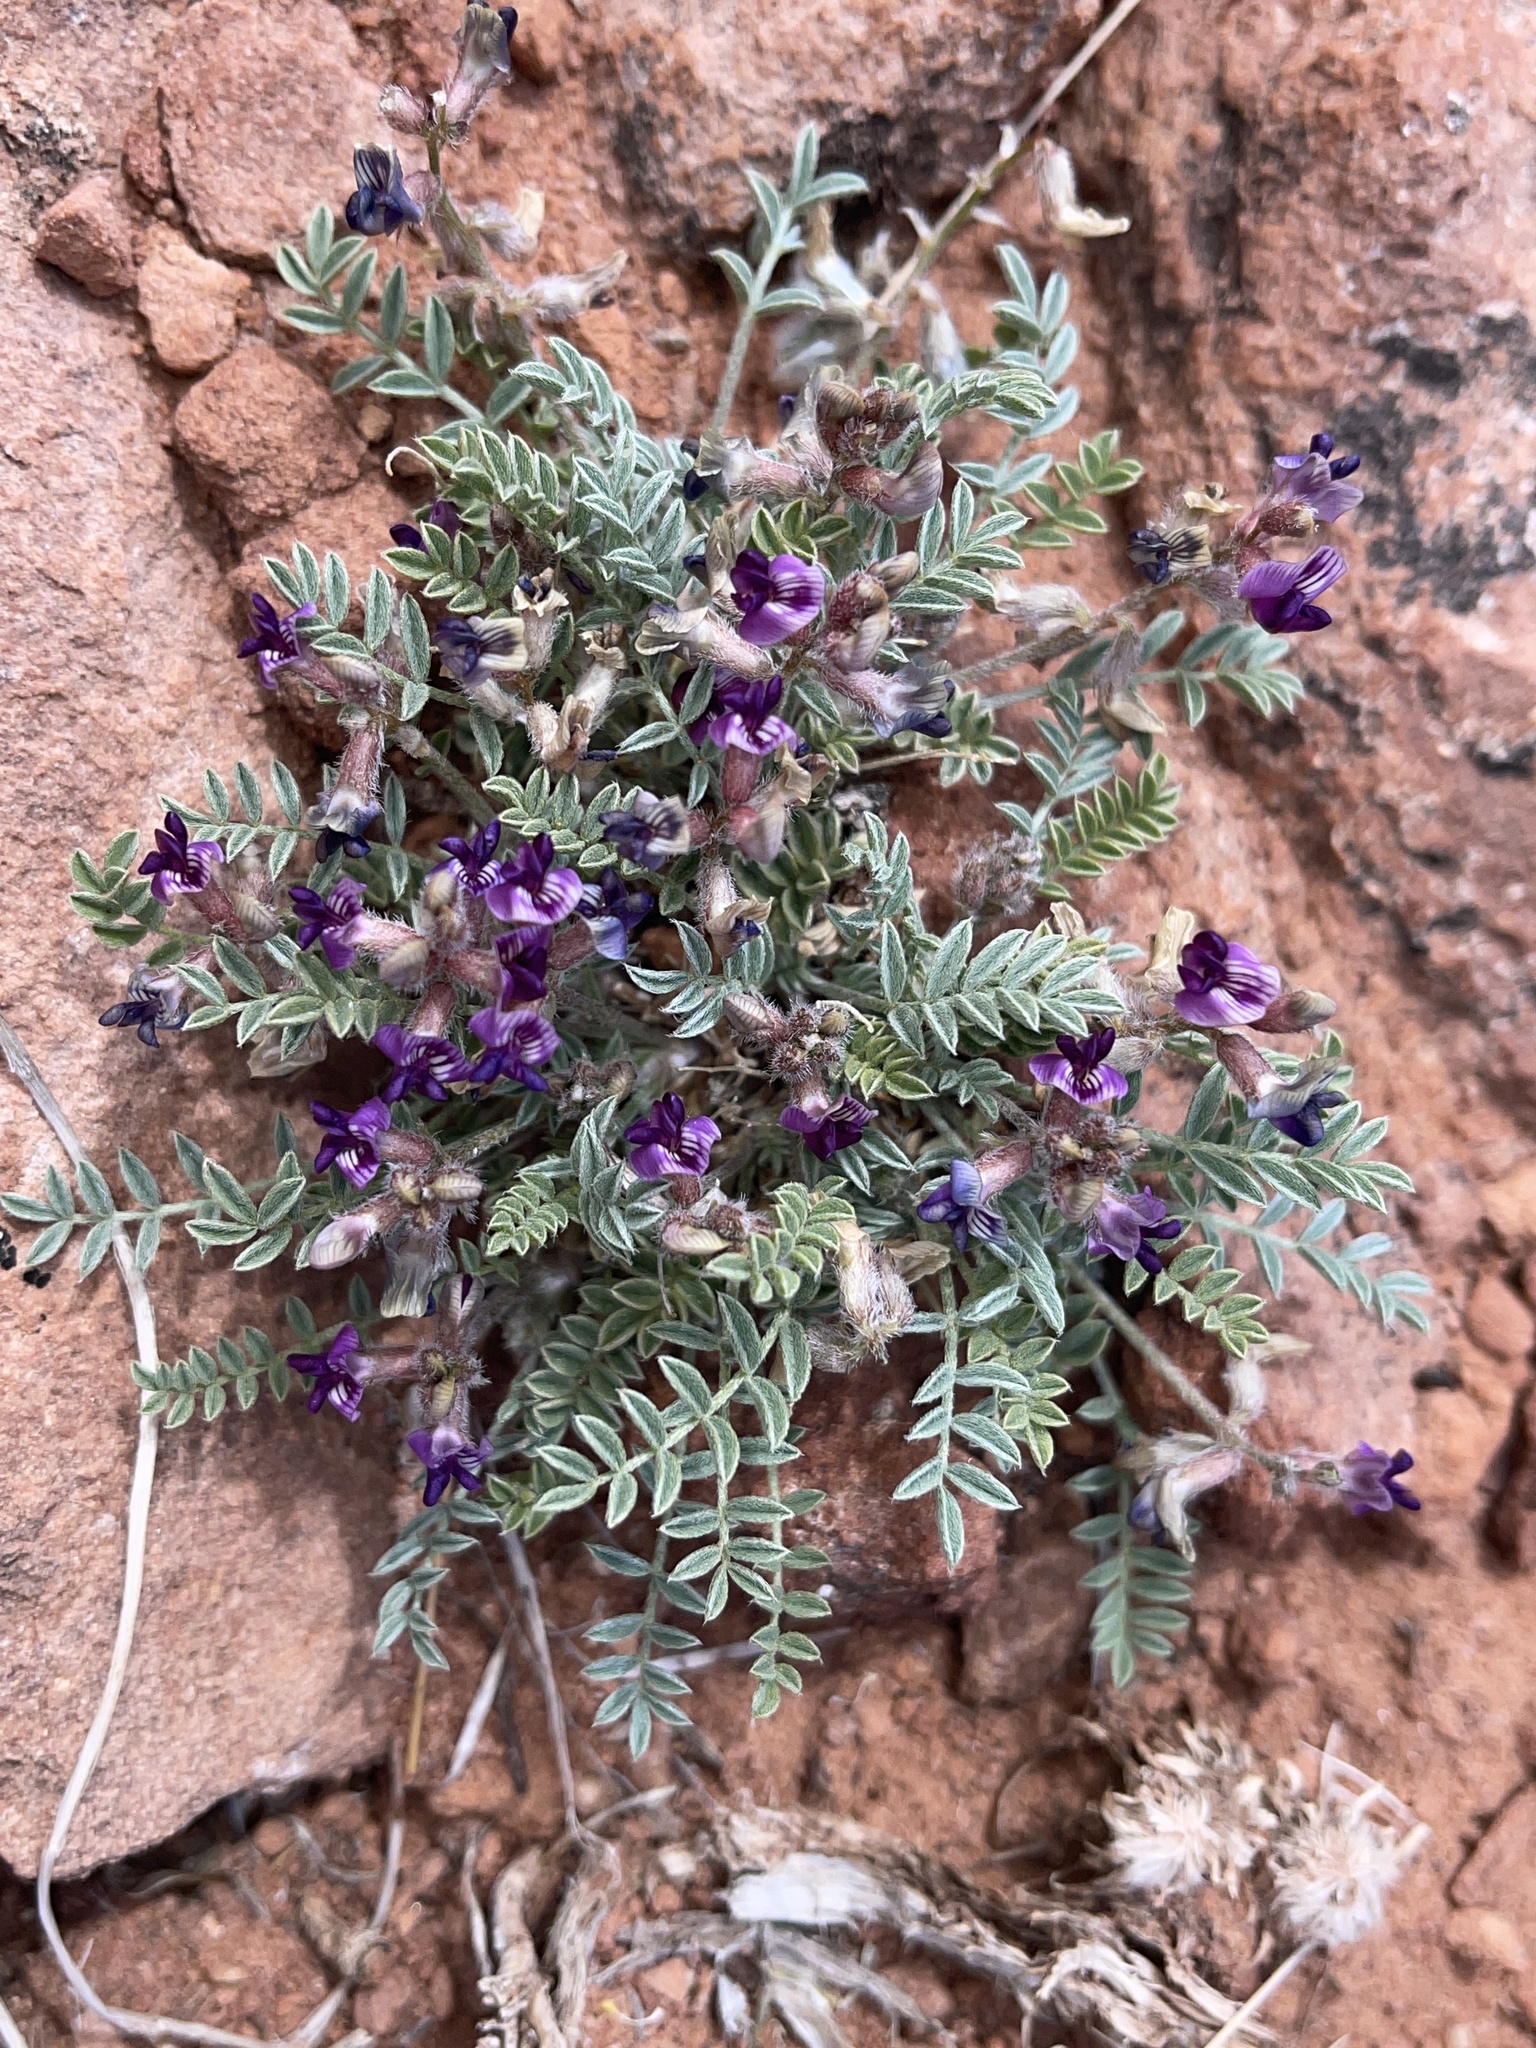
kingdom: Plantae
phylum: Tracheophyta
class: Magnoliopsida
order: Fabales
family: Fabaceae
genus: Astragalus
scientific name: Astragalus desperatus
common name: Rimrock milk-vetch
